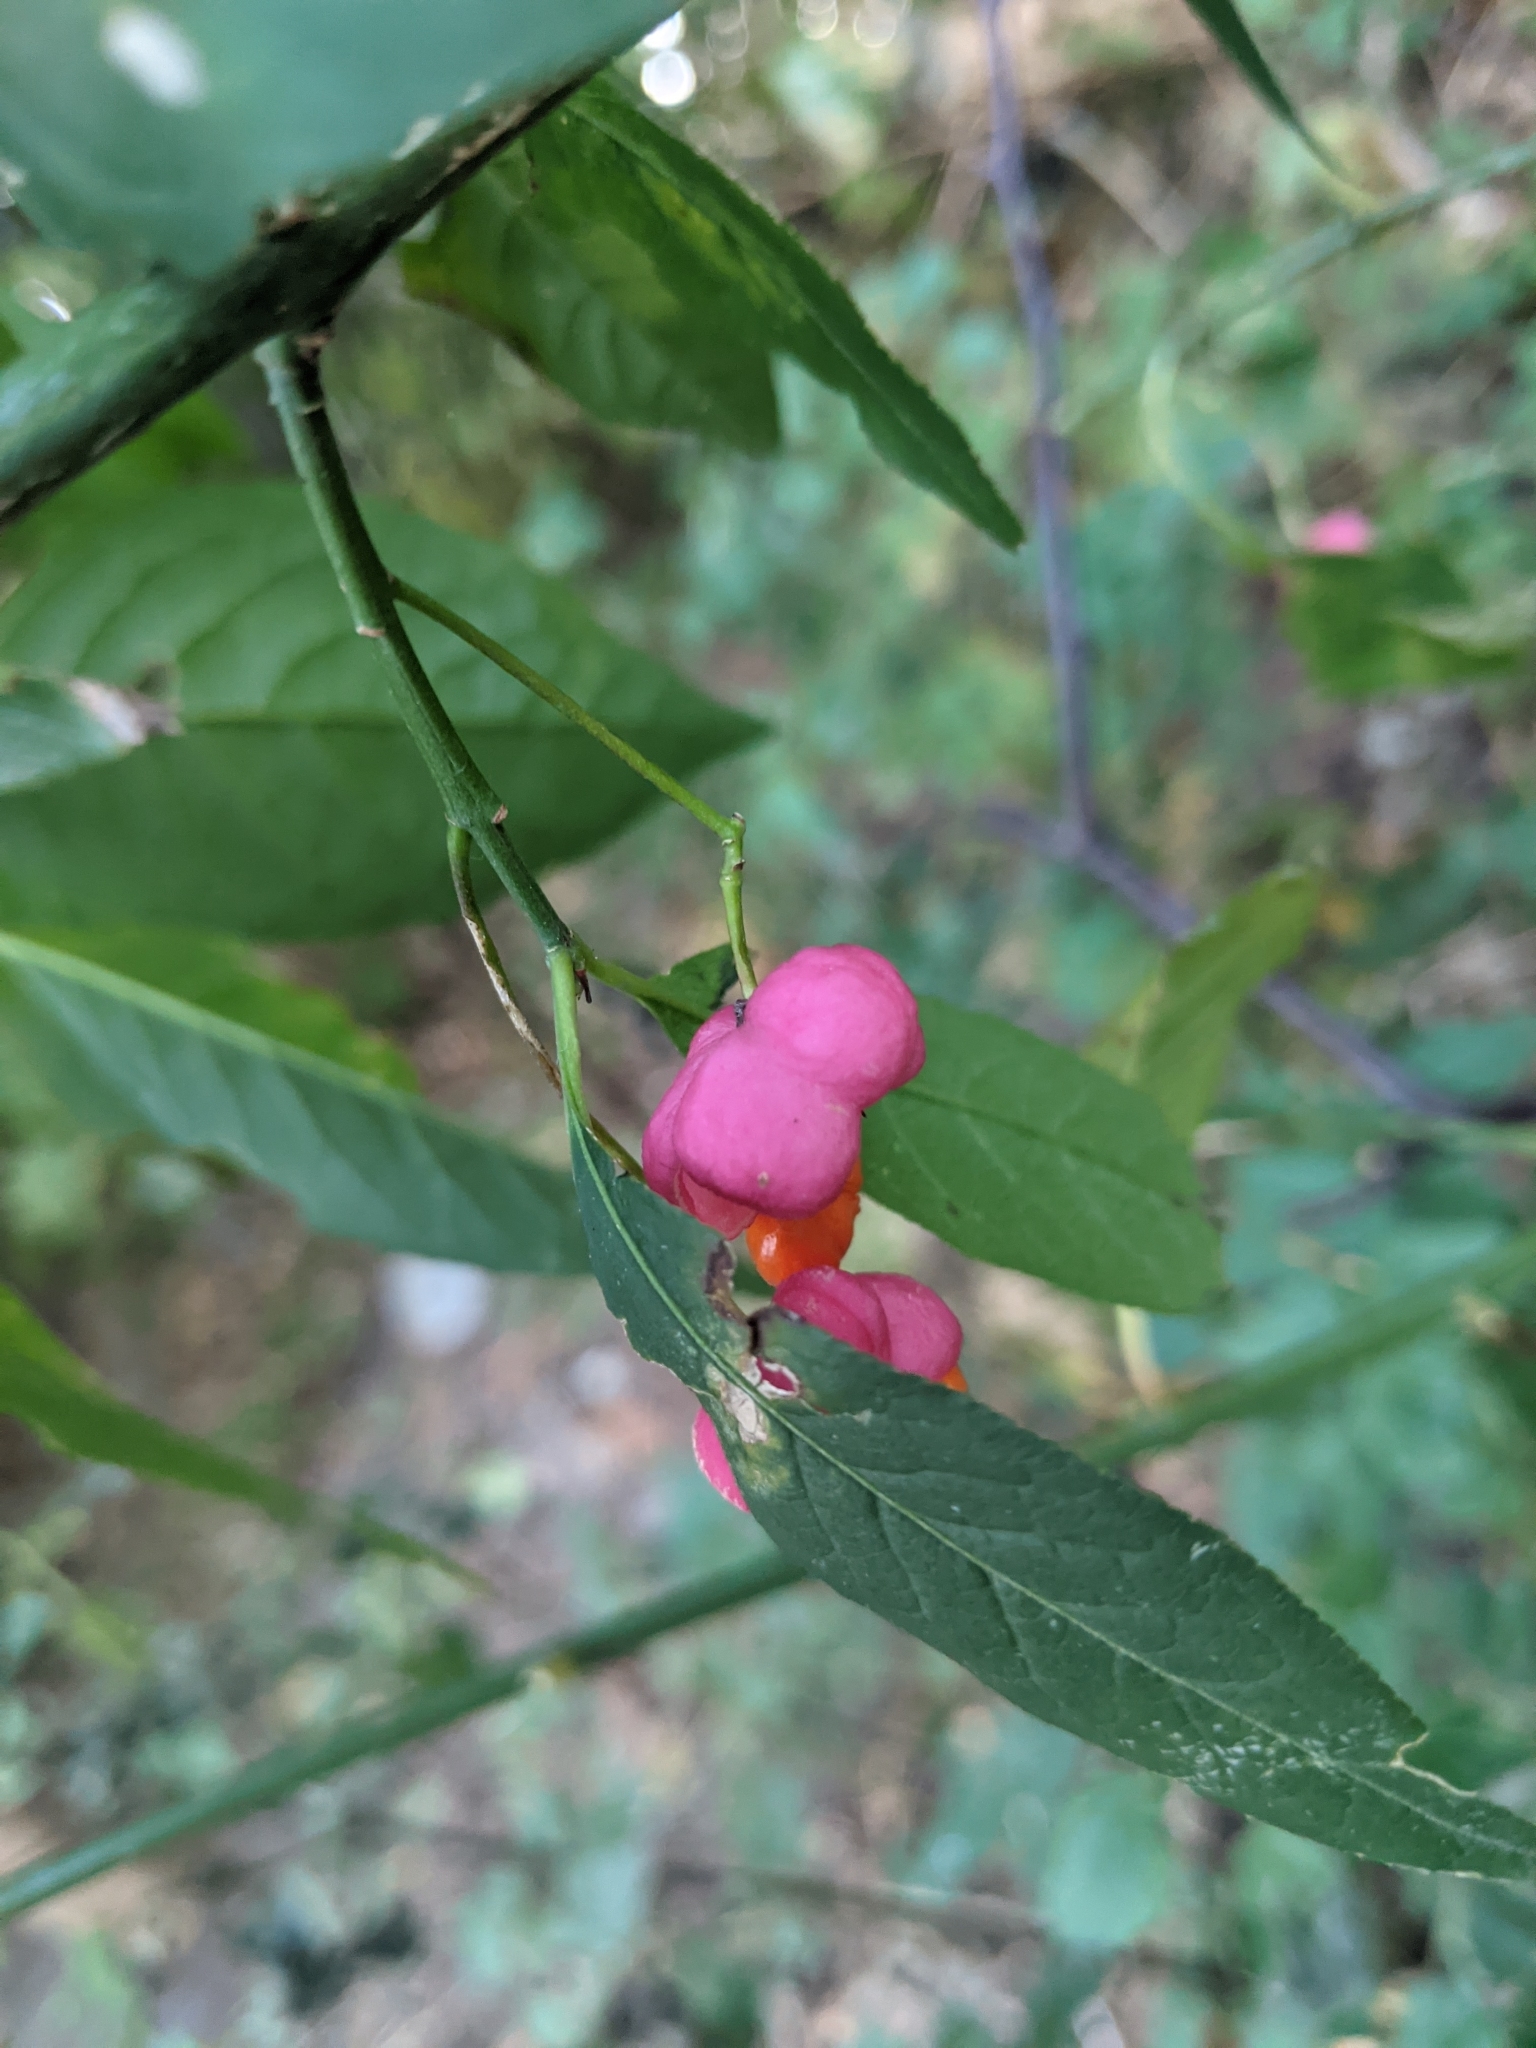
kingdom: Plantae
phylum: Tracheophyta
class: Magnoliopsida
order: Celastrales
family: Celastraceae
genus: Euonymus
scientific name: Euonymus europaeus
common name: Spindle
